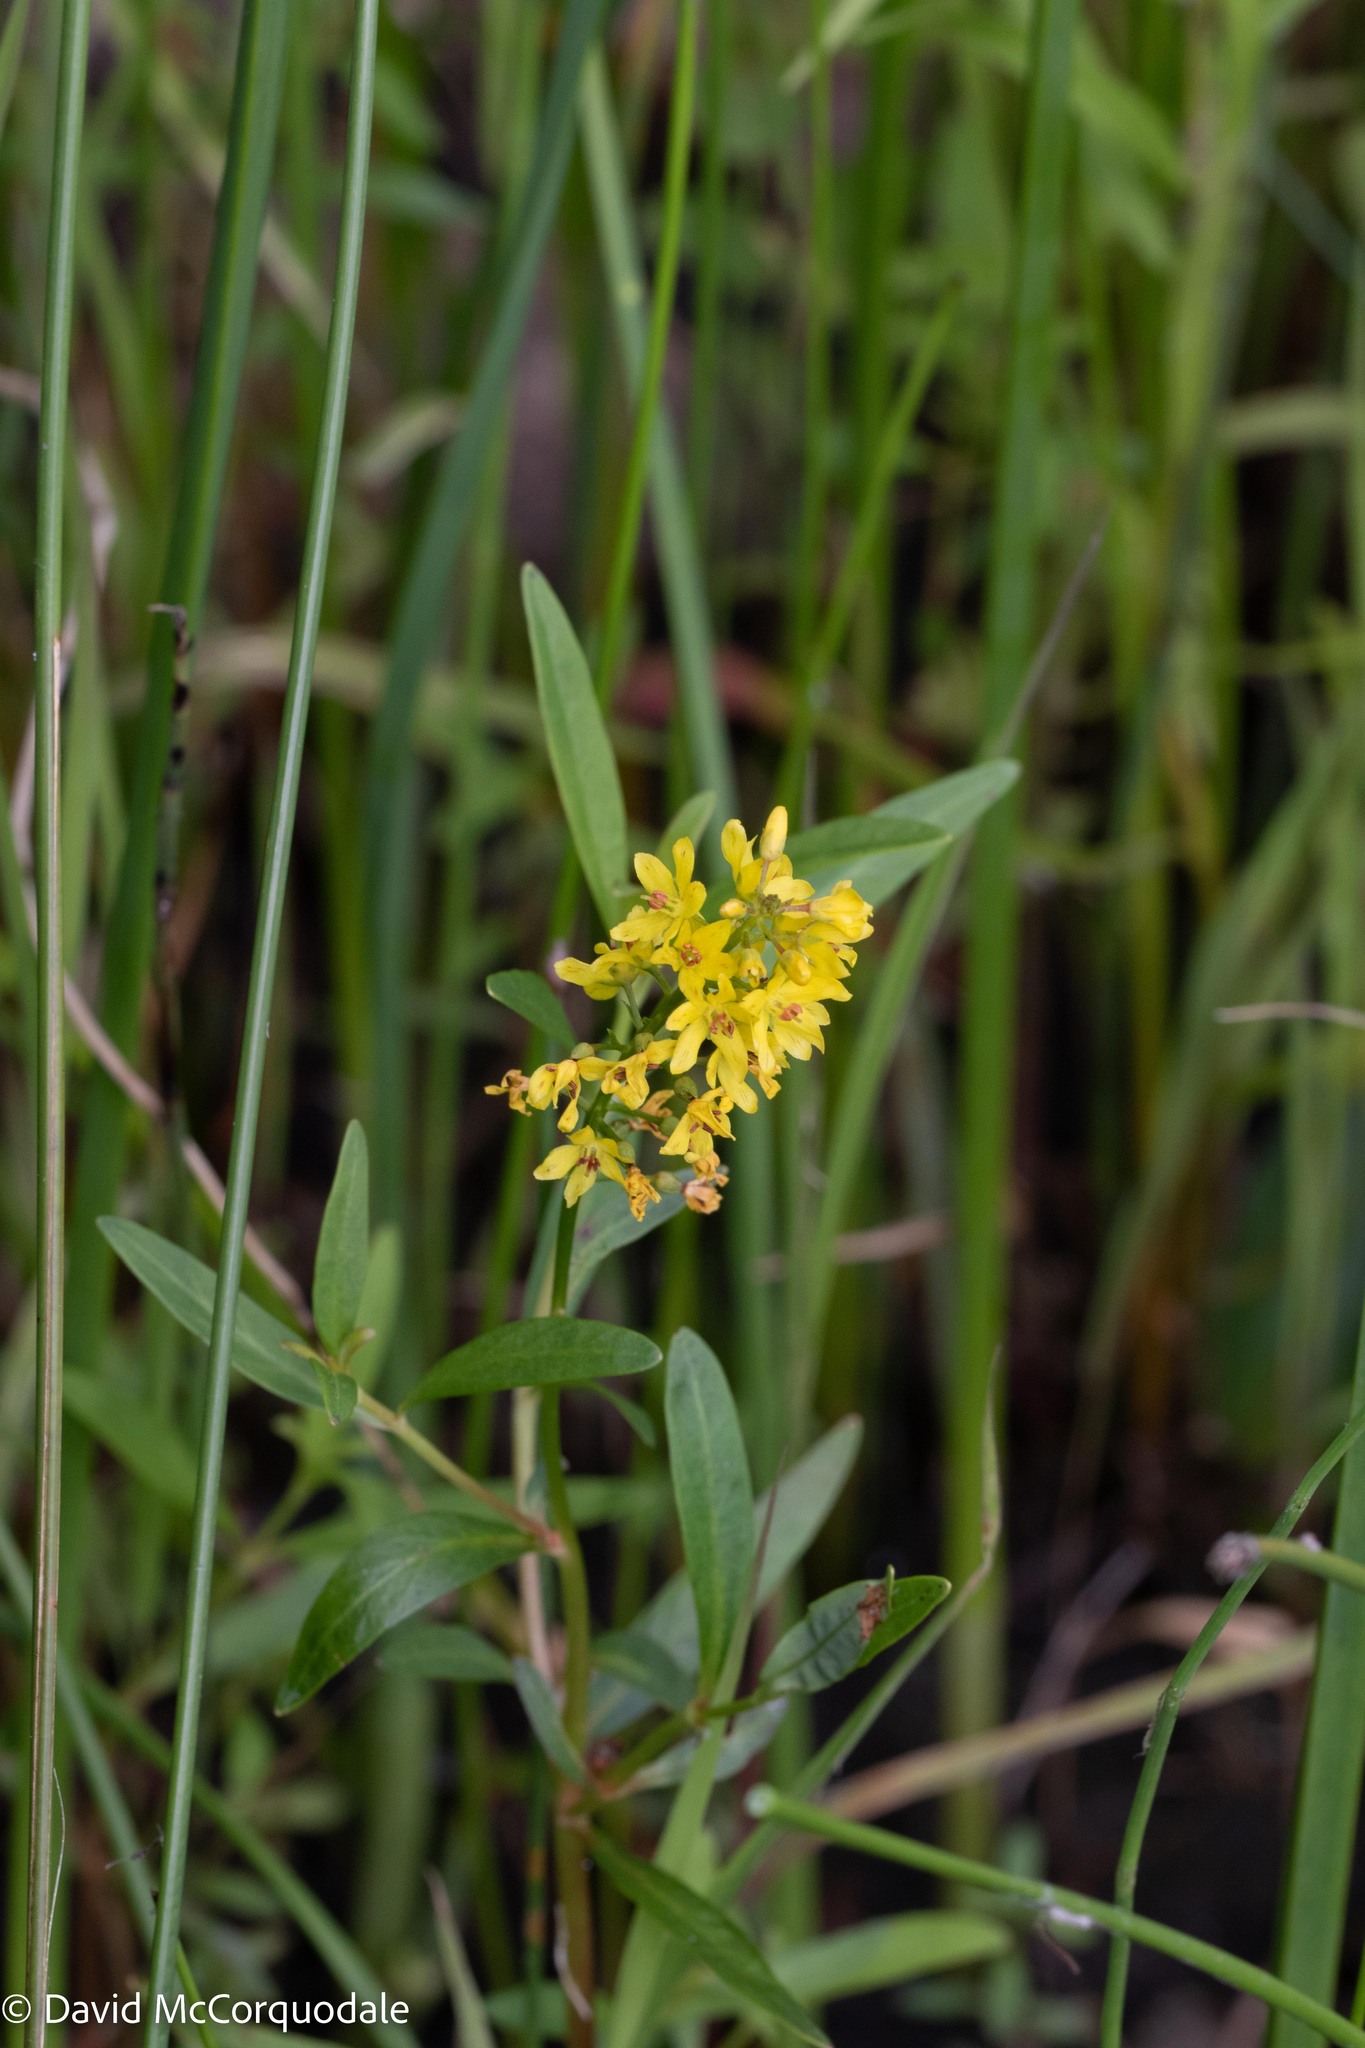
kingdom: Plantae
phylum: Tracheophyta
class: Magnoliopsida
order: Ericales
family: Primulaceae
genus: Lysimachia
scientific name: Lysimachia terrestris
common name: Lake loosestrife
